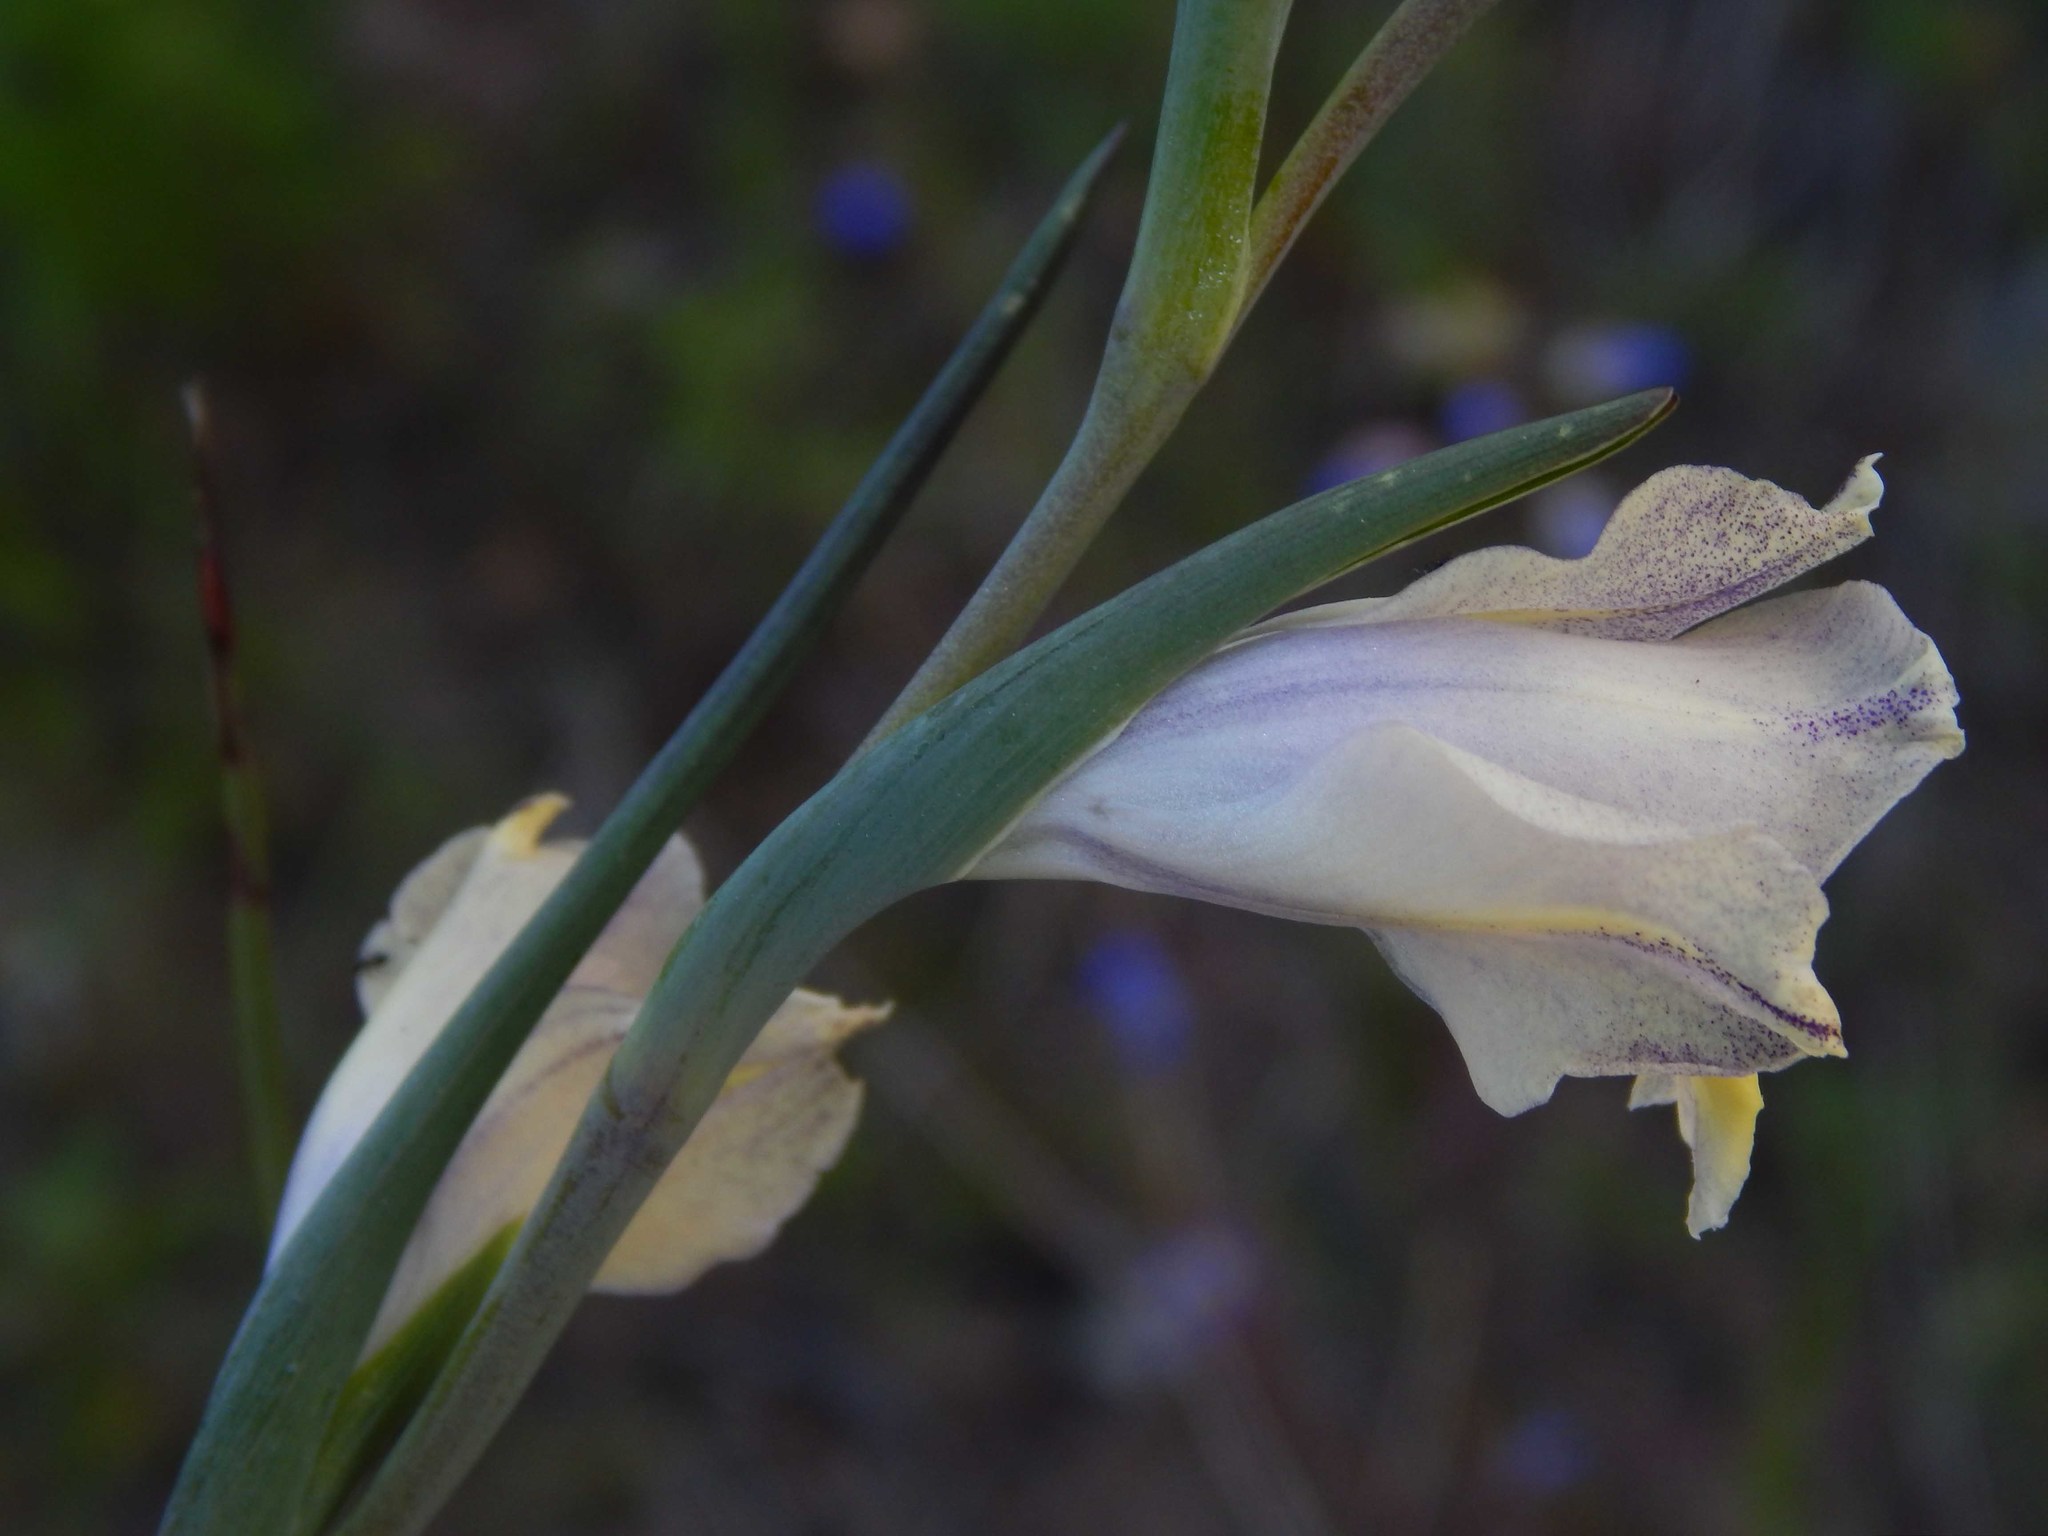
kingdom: Plantae
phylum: Tracheophyta
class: Liliopsida
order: Asparagales
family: Iridaceae
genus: Gladiolus
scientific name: Gladiolus carinatus
